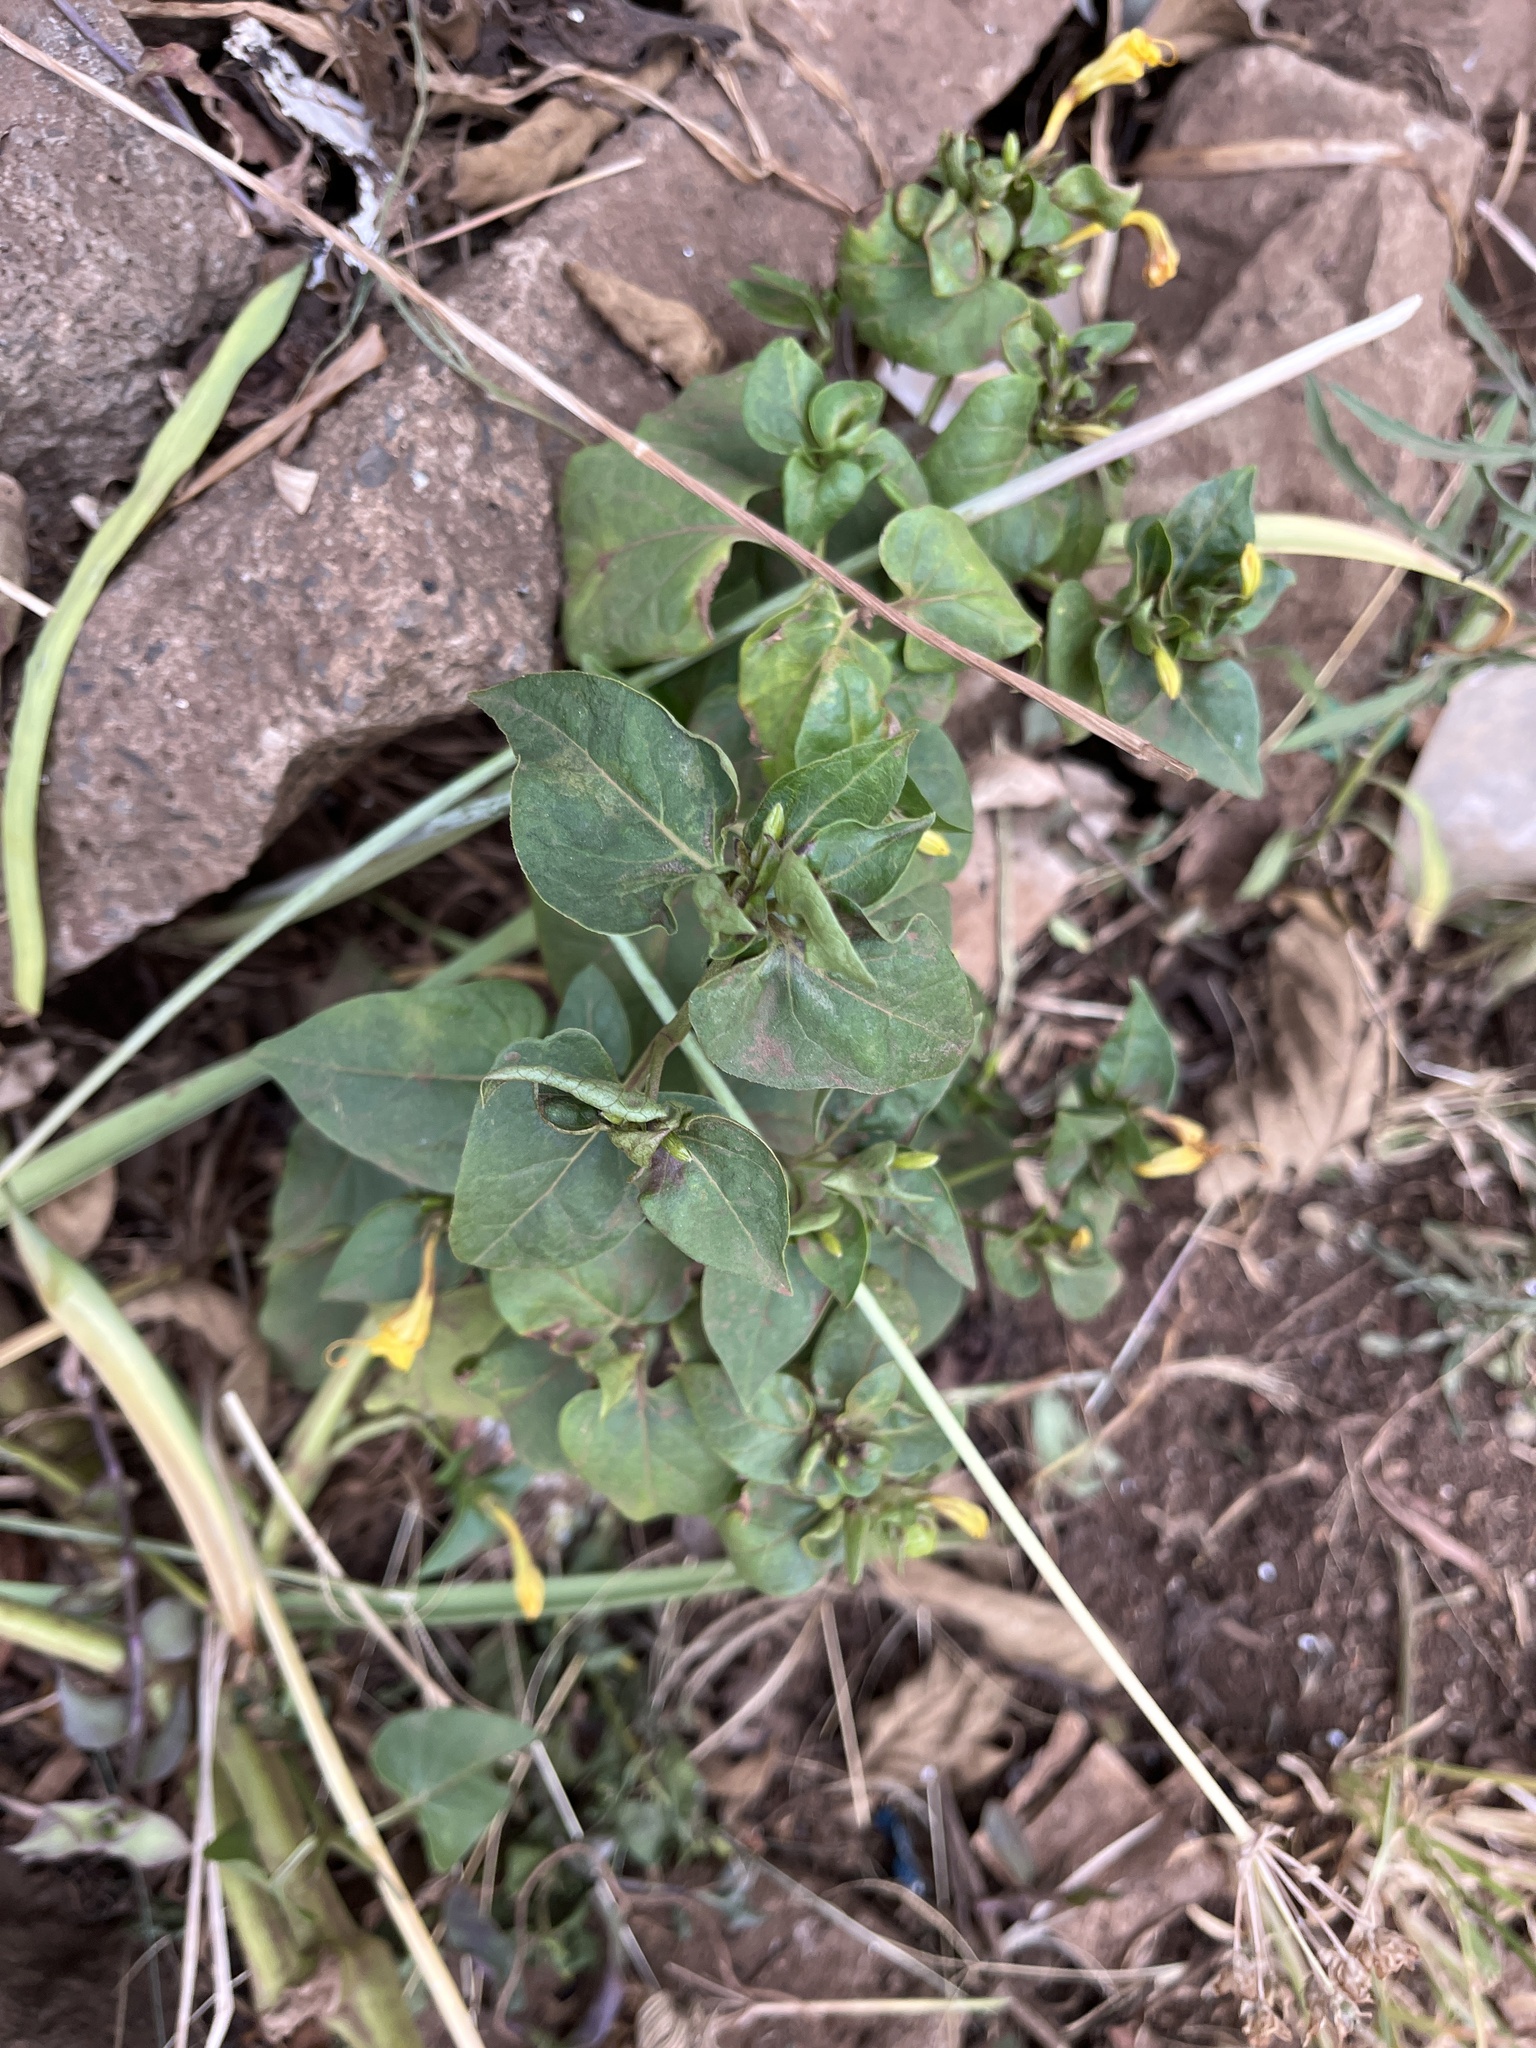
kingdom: Plantae
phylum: Tracheophyta
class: Magnoliopsida
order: Caryophyllales
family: Nyctaginaceae
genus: Mirabilis
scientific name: Mirabilis jalapa
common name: Marvel-of-peru
